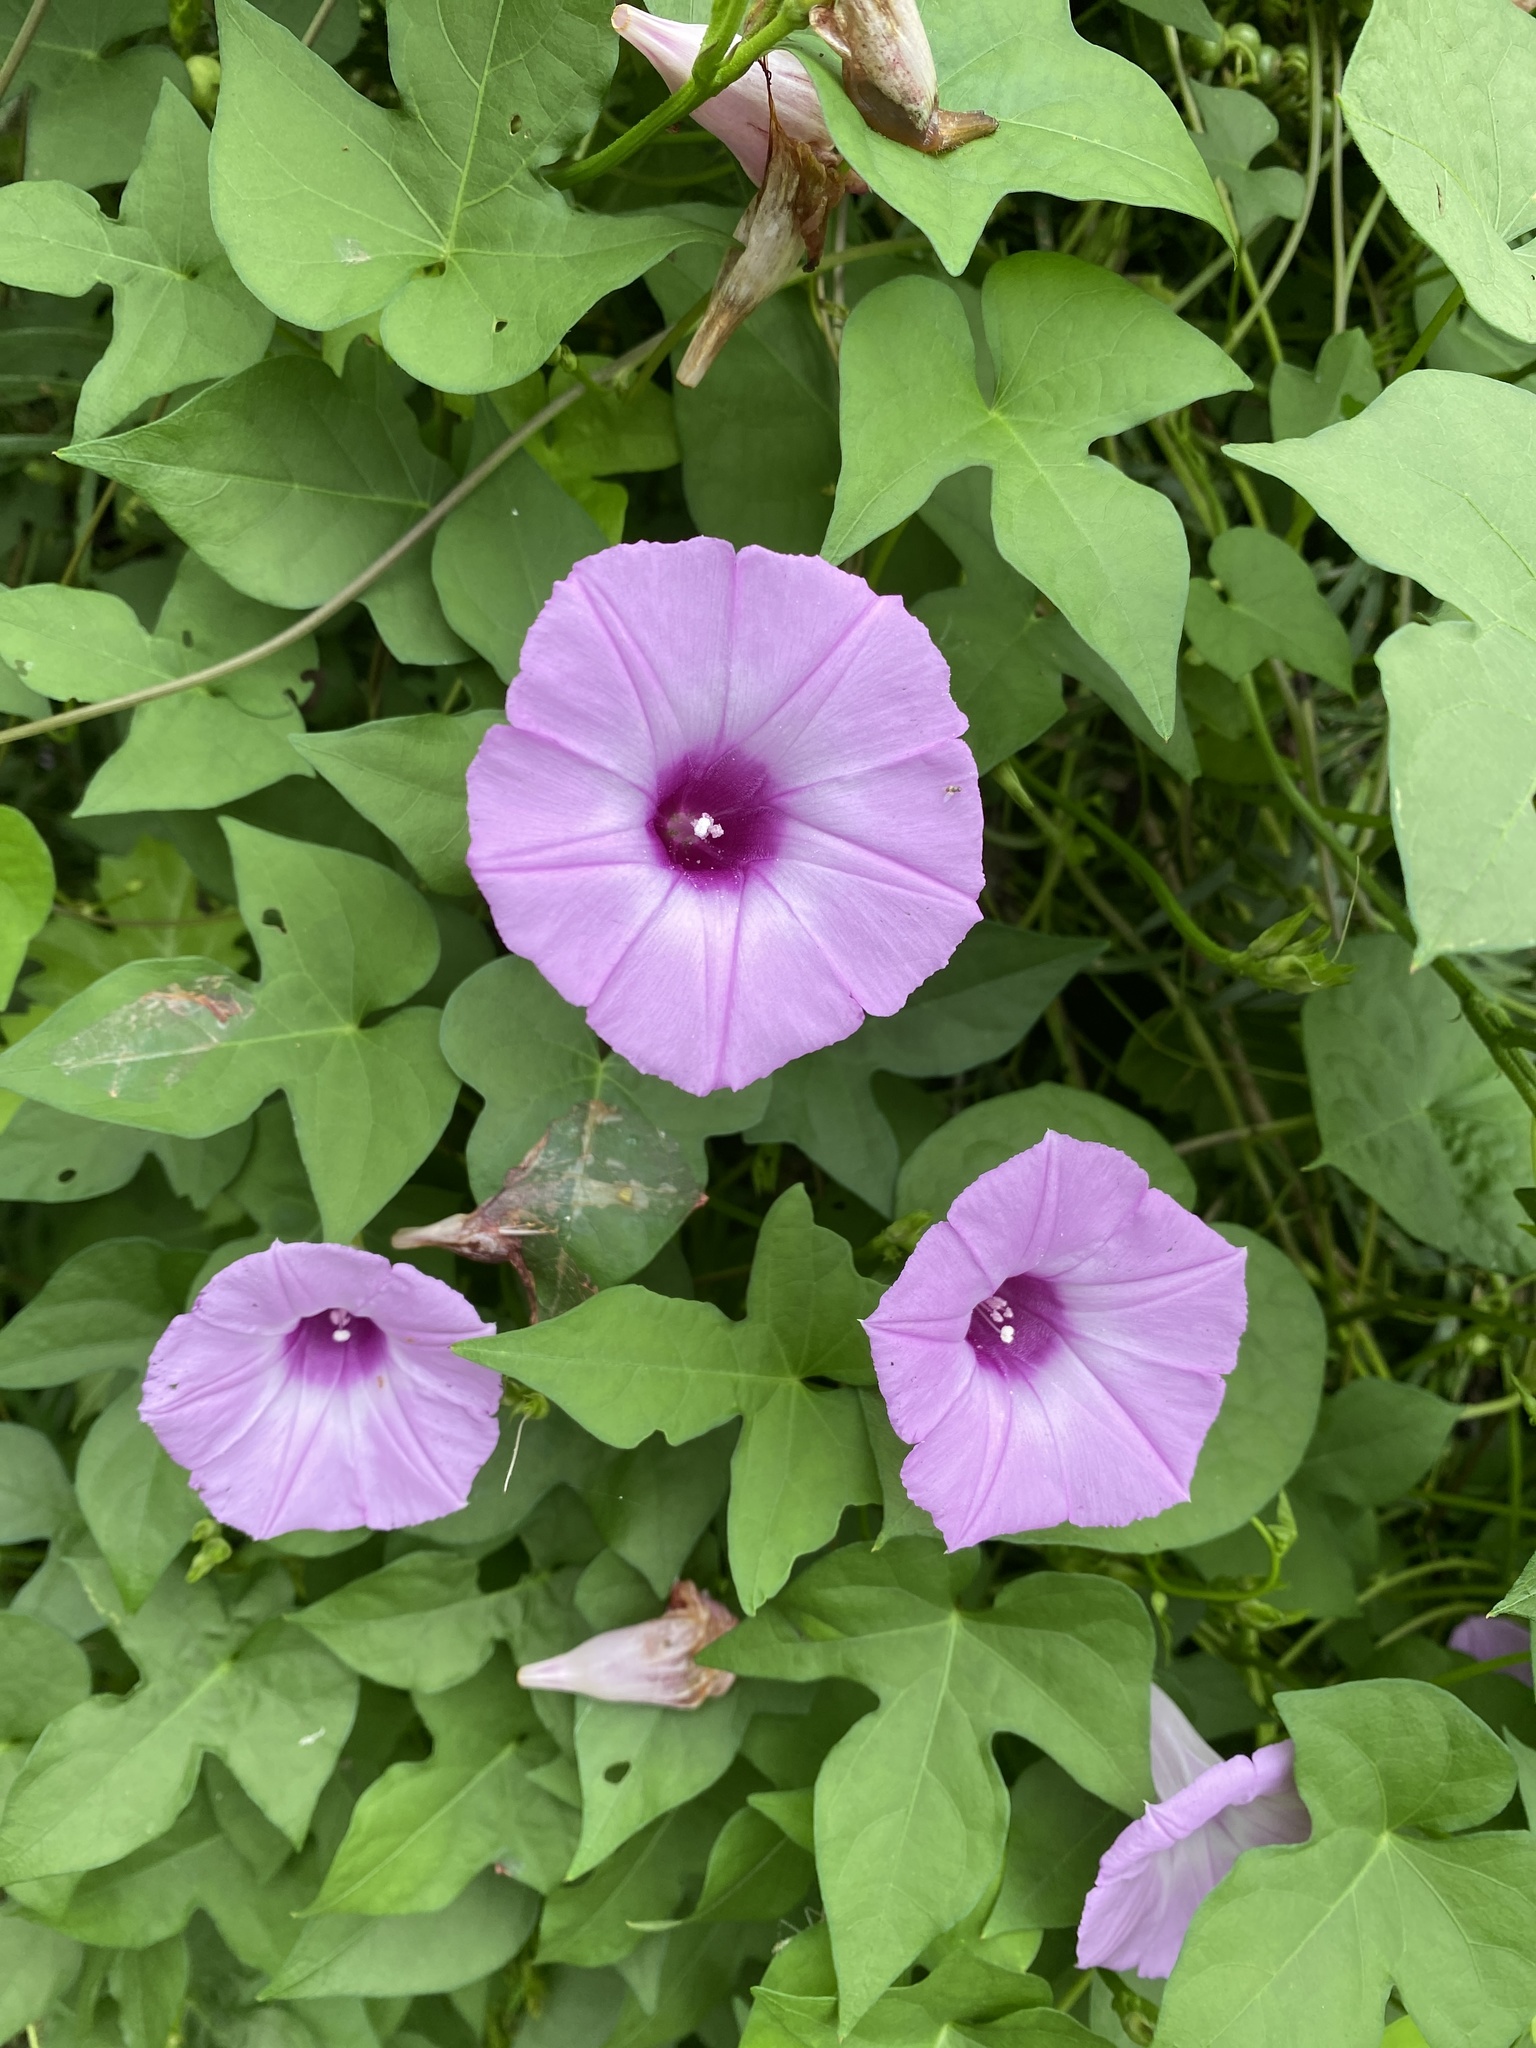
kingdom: Plantae
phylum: Tracheophyta
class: Magnoliopsida
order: Solanales
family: Convolvulaceae
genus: Ipomoea
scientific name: Ipomoea cordatotriloba
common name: Cotton morning glory
